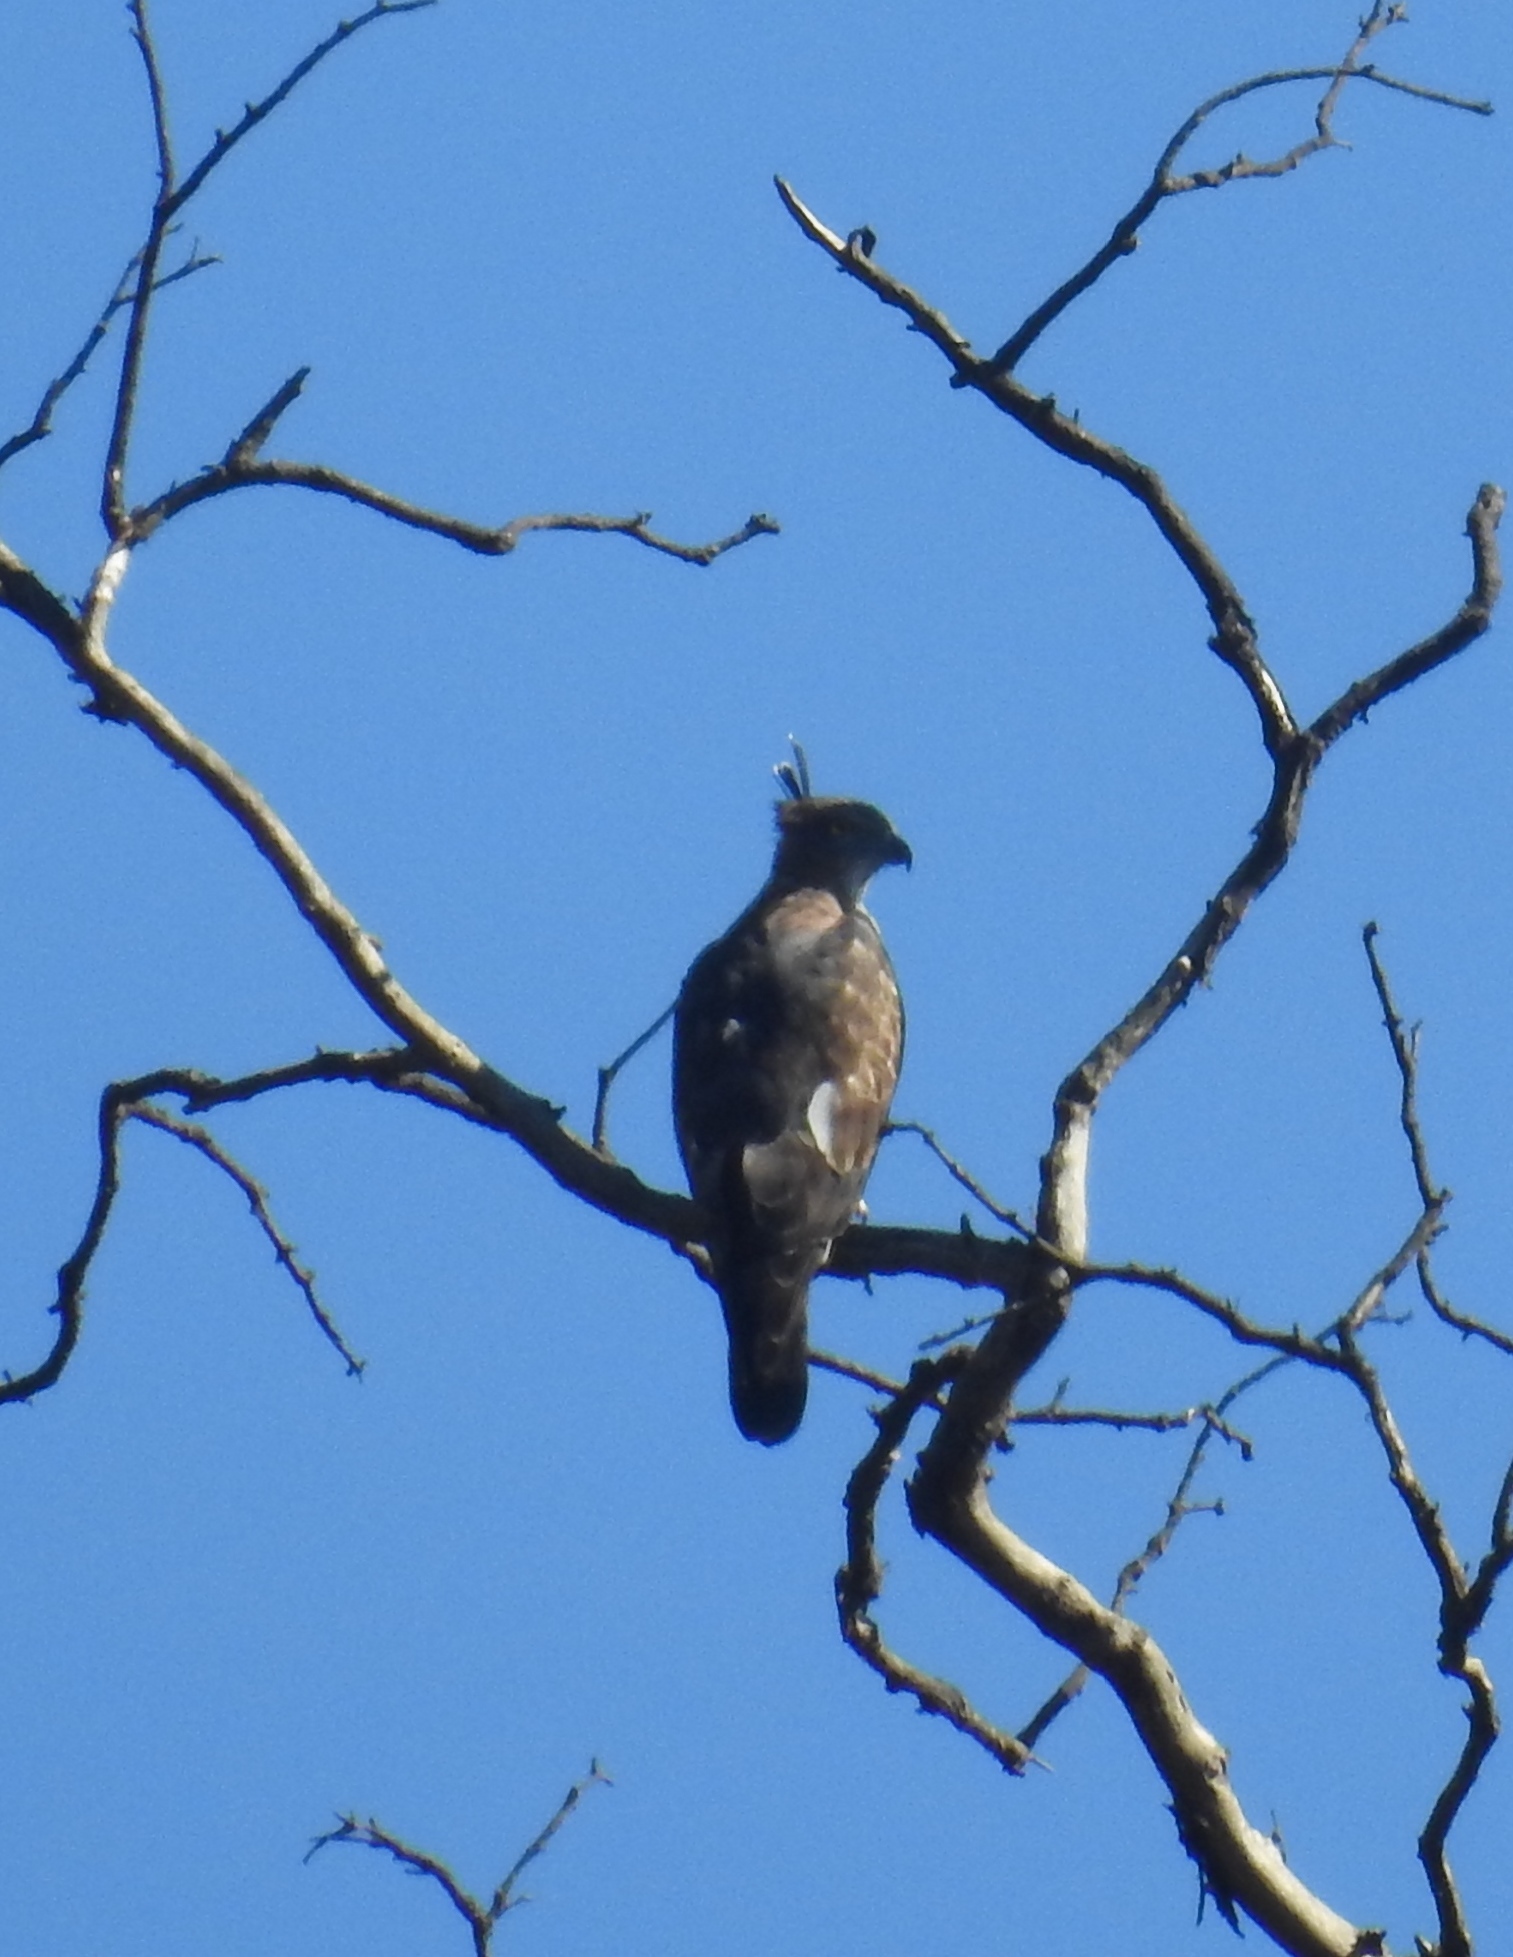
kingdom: Animalia
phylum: Chordata
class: Aves
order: Accipitriformes
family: Accipitridae
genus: Aviceda
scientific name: Aviceda jerdoni
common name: Jerdon's baza
